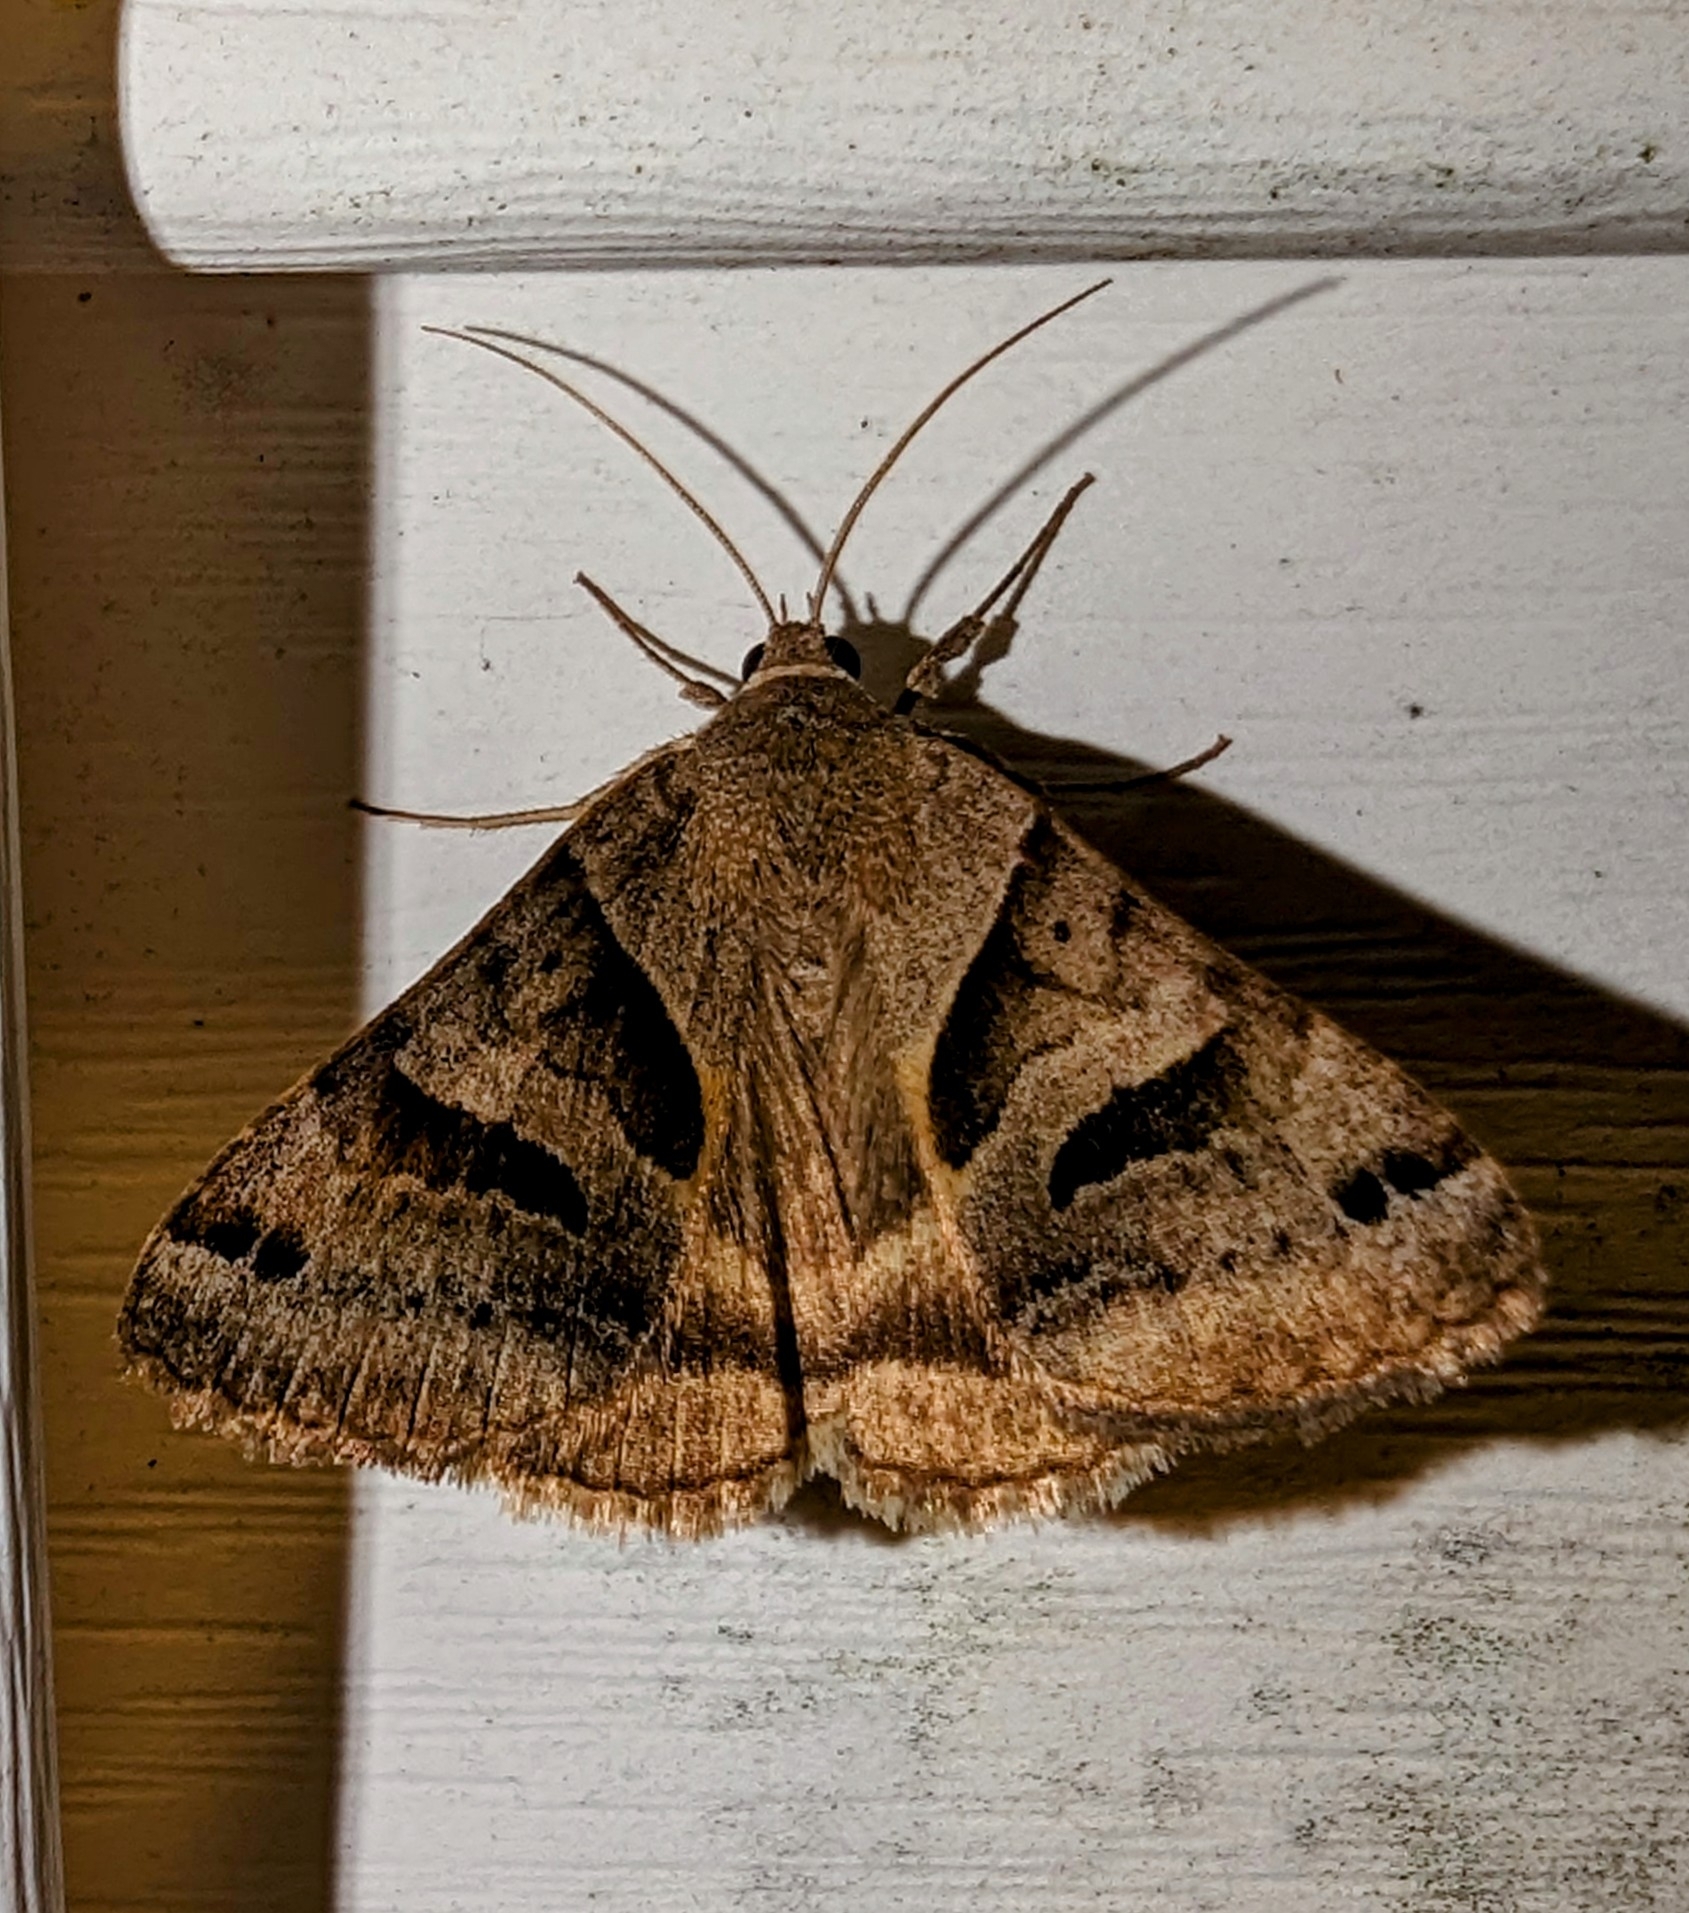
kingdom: Animalia
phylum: Arthropoda
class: Insecta
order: Lepidoptera
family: Erebidae
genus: Caenurgina
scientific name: Caenurgina erechtea
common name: Forage looper moth
